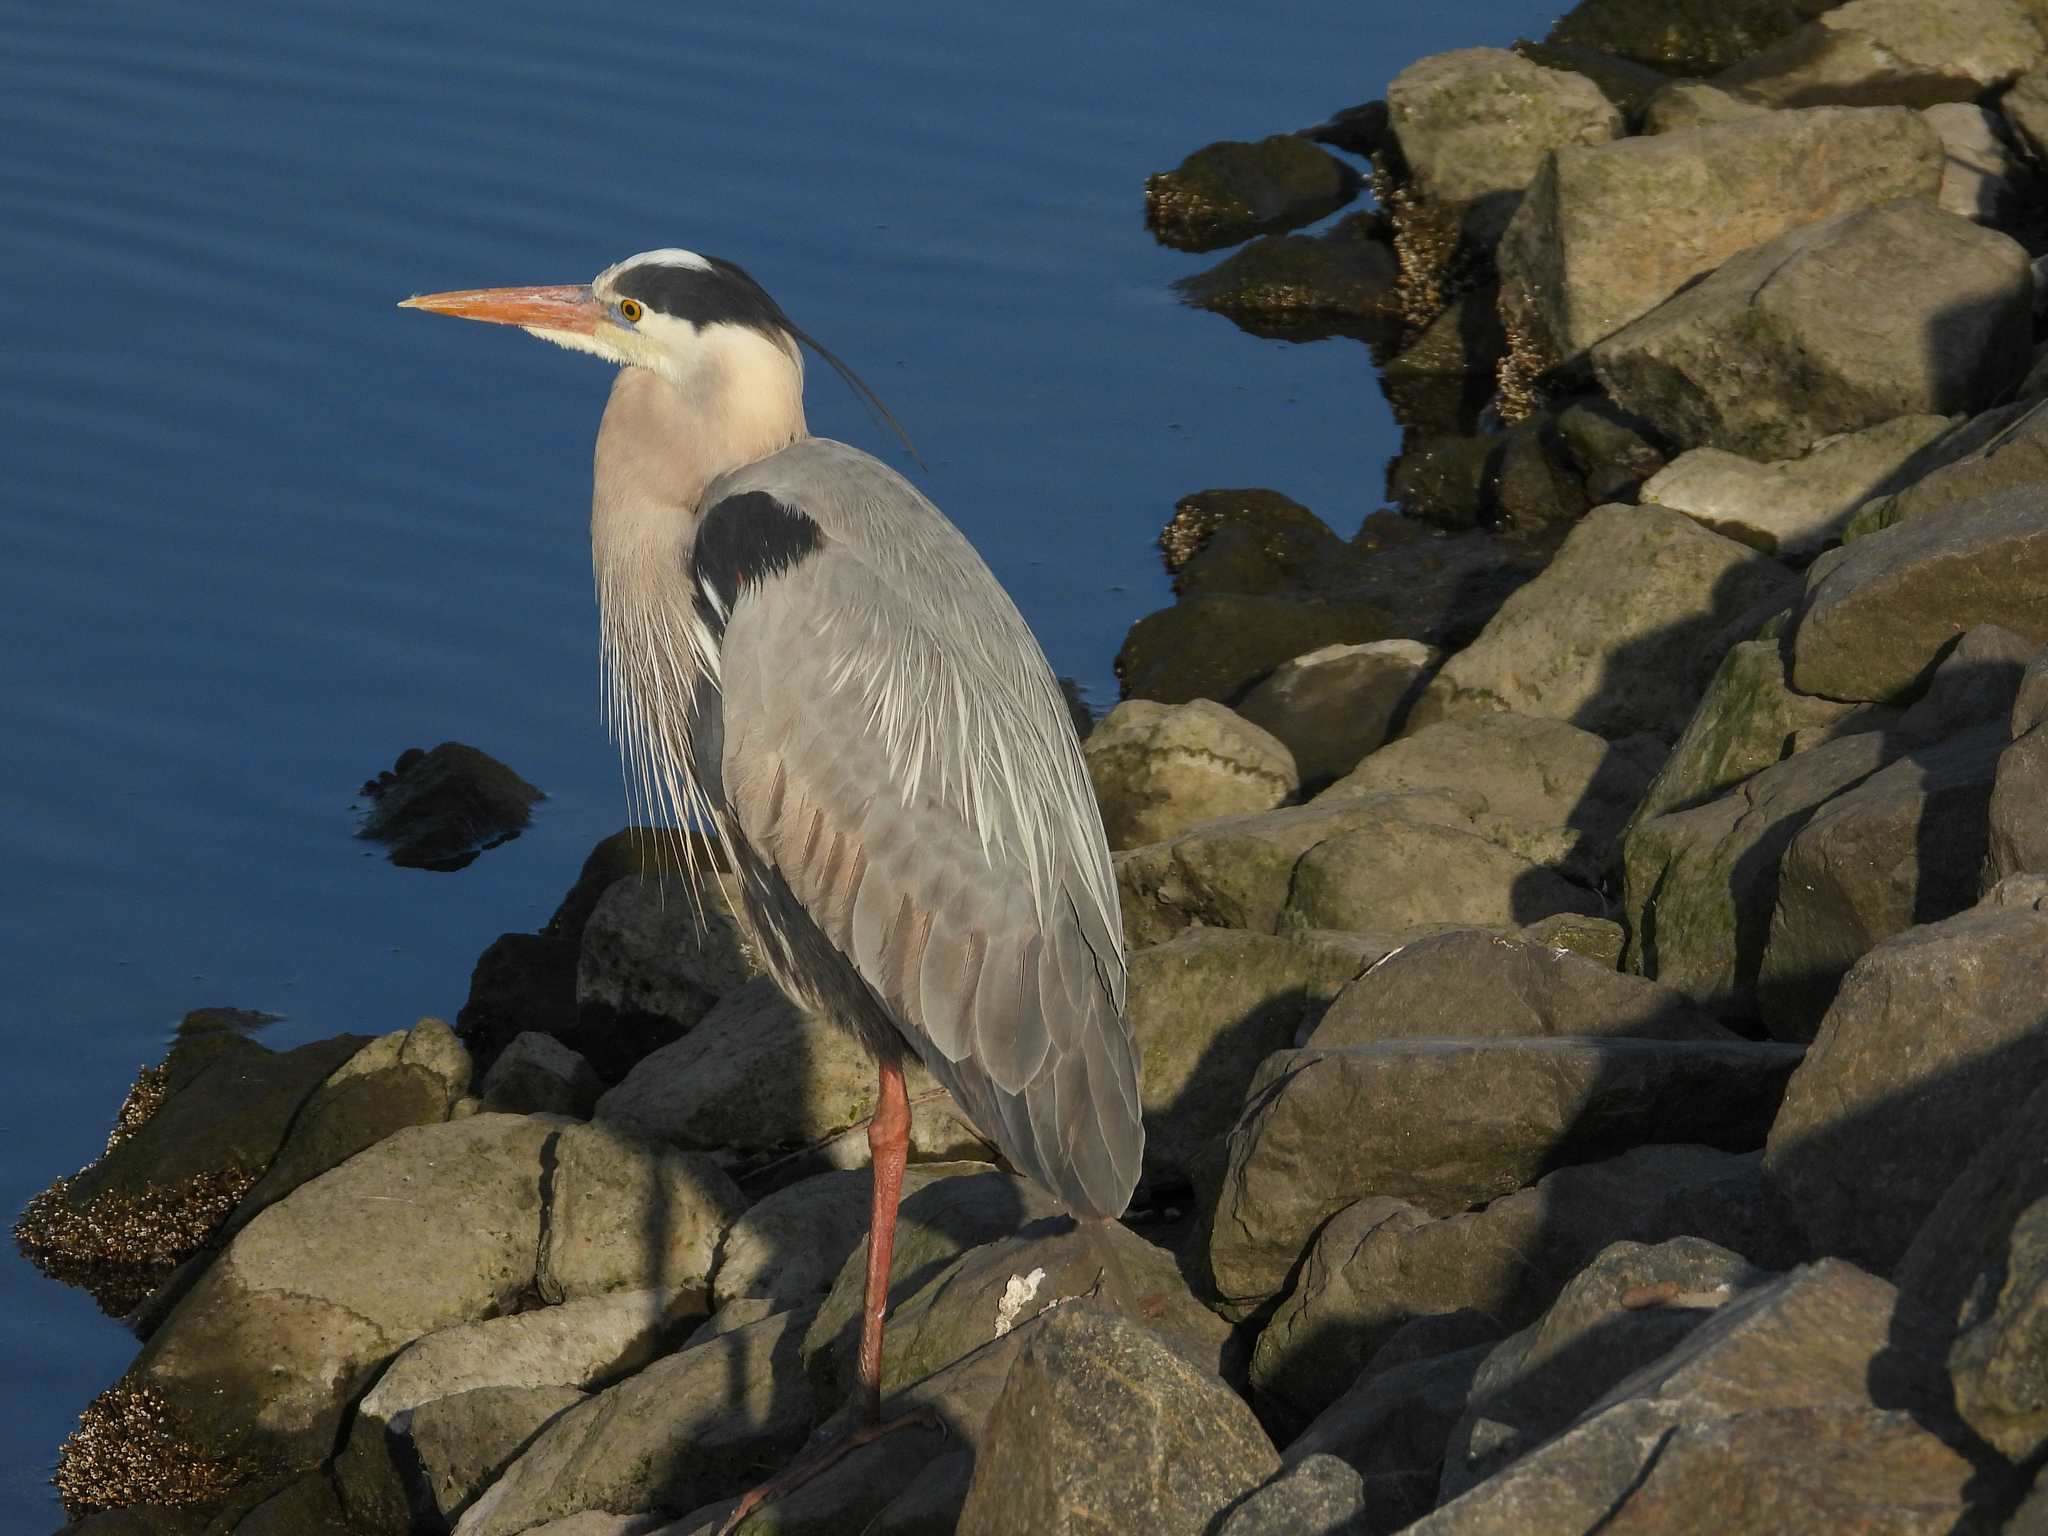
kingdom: Animalia
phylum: Chordata
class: Aves
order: Pelecaniformes
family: Ardeidae
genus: Ardea
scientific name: Ardea herodias
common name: Great blue heron
